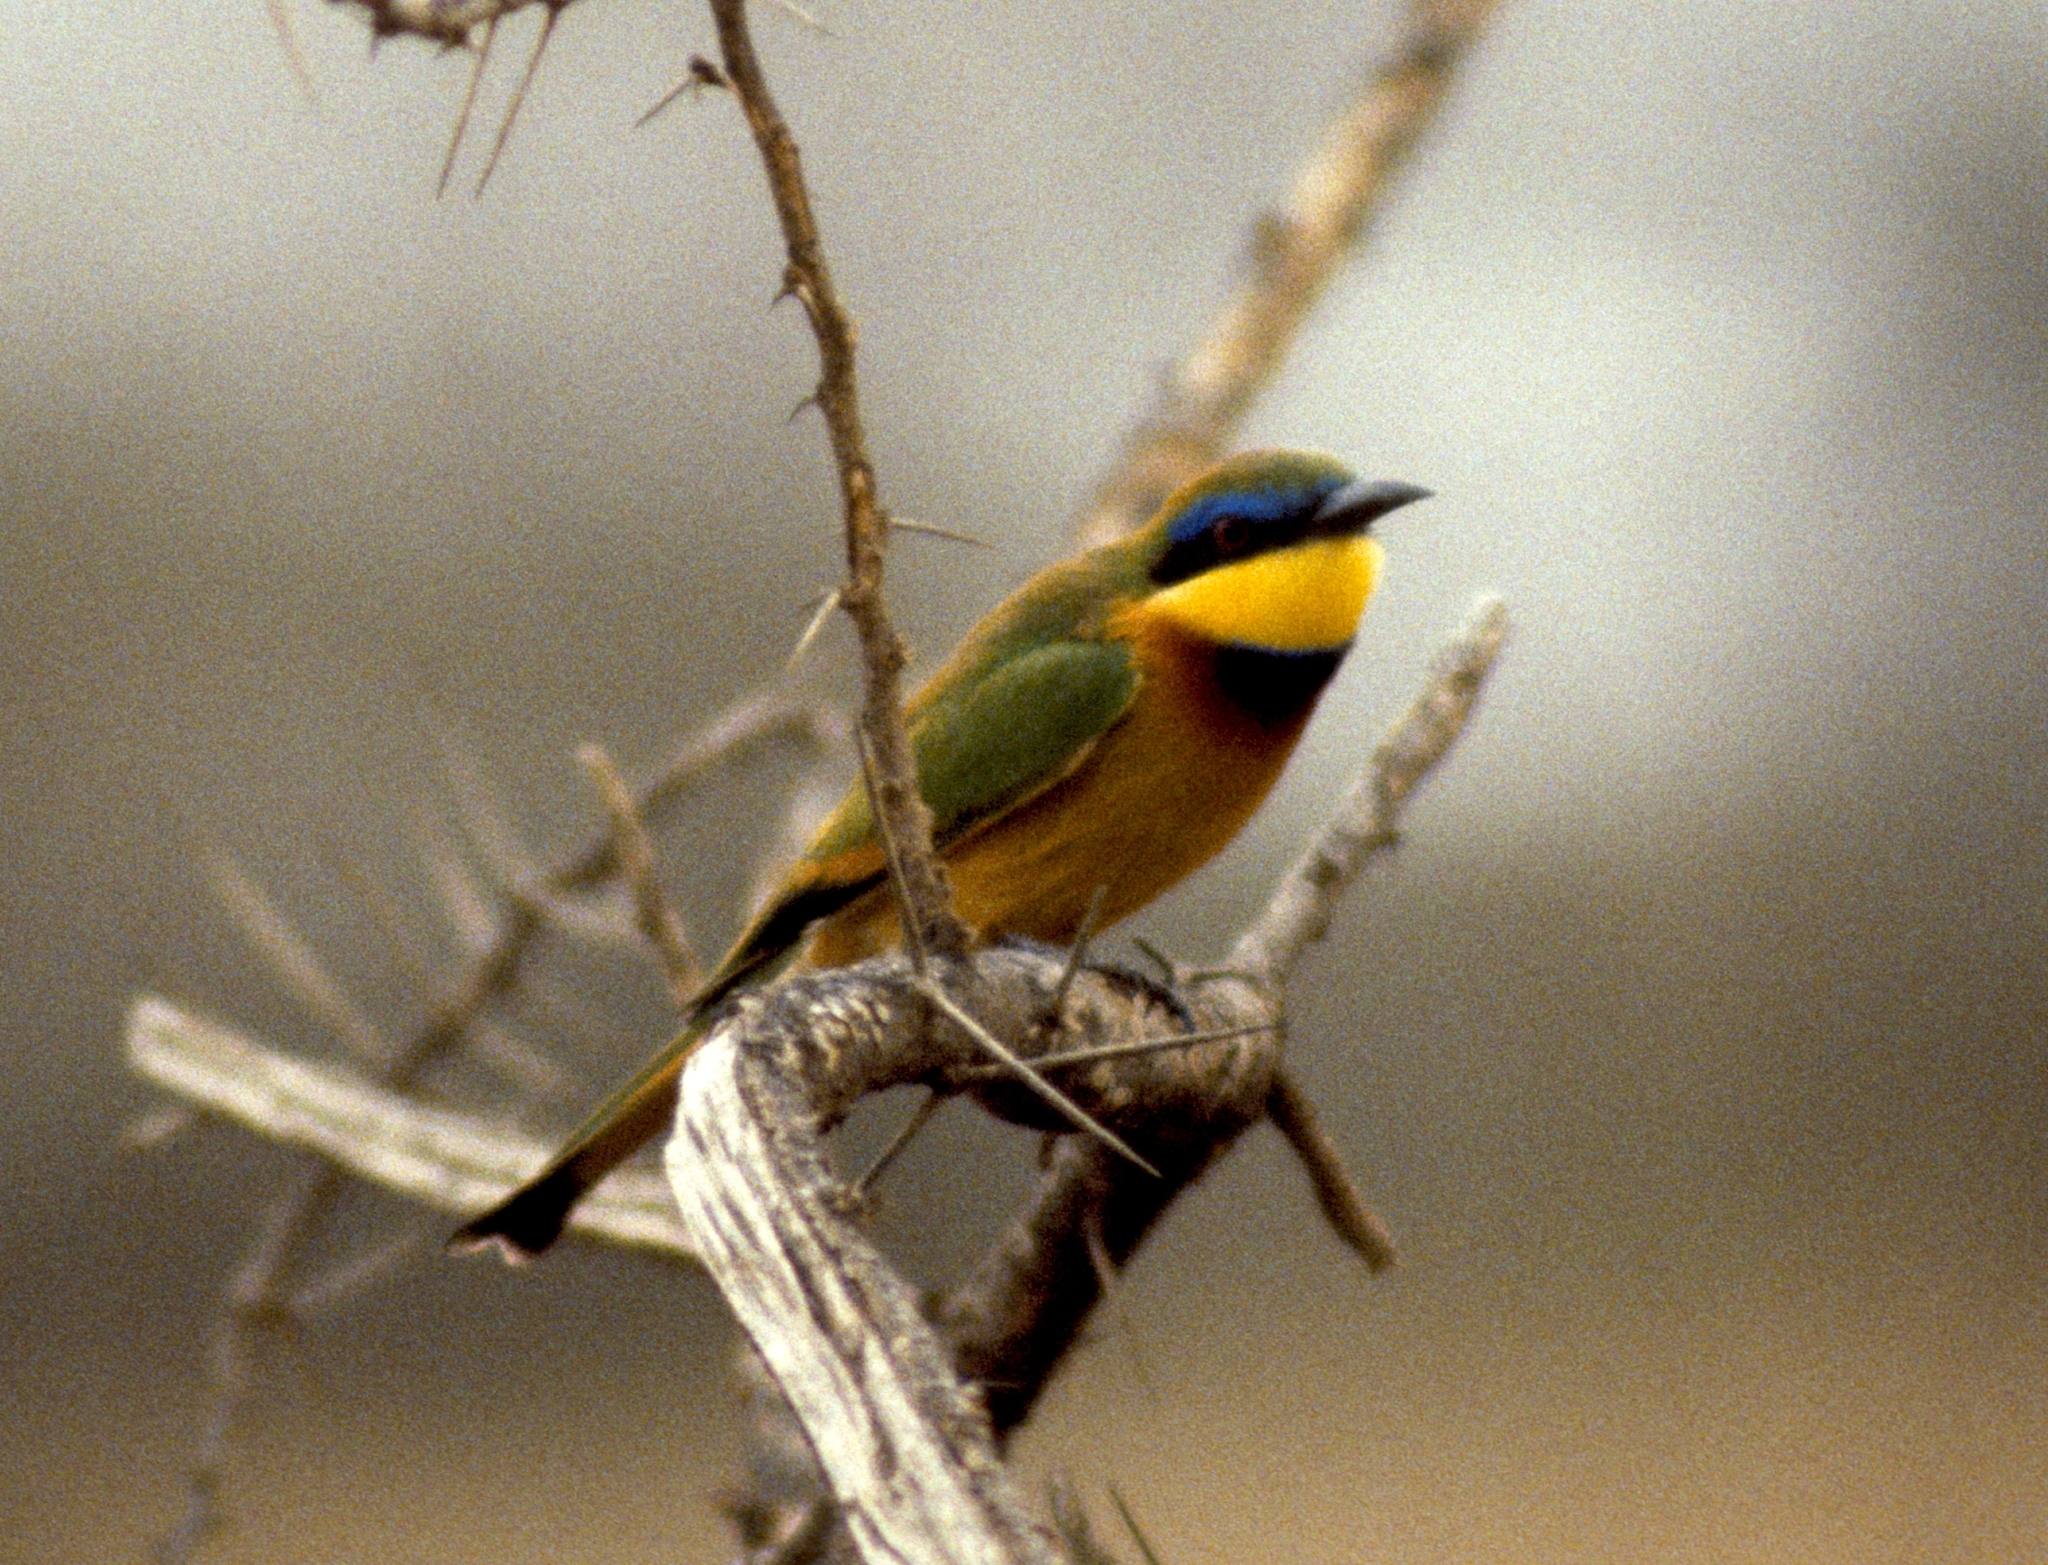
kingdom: Animalia
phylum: Chordata
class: Aves
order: Coraciiformes
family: Meropidae
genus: Merops
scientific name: Merops pusillus
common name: Little bee-eater
